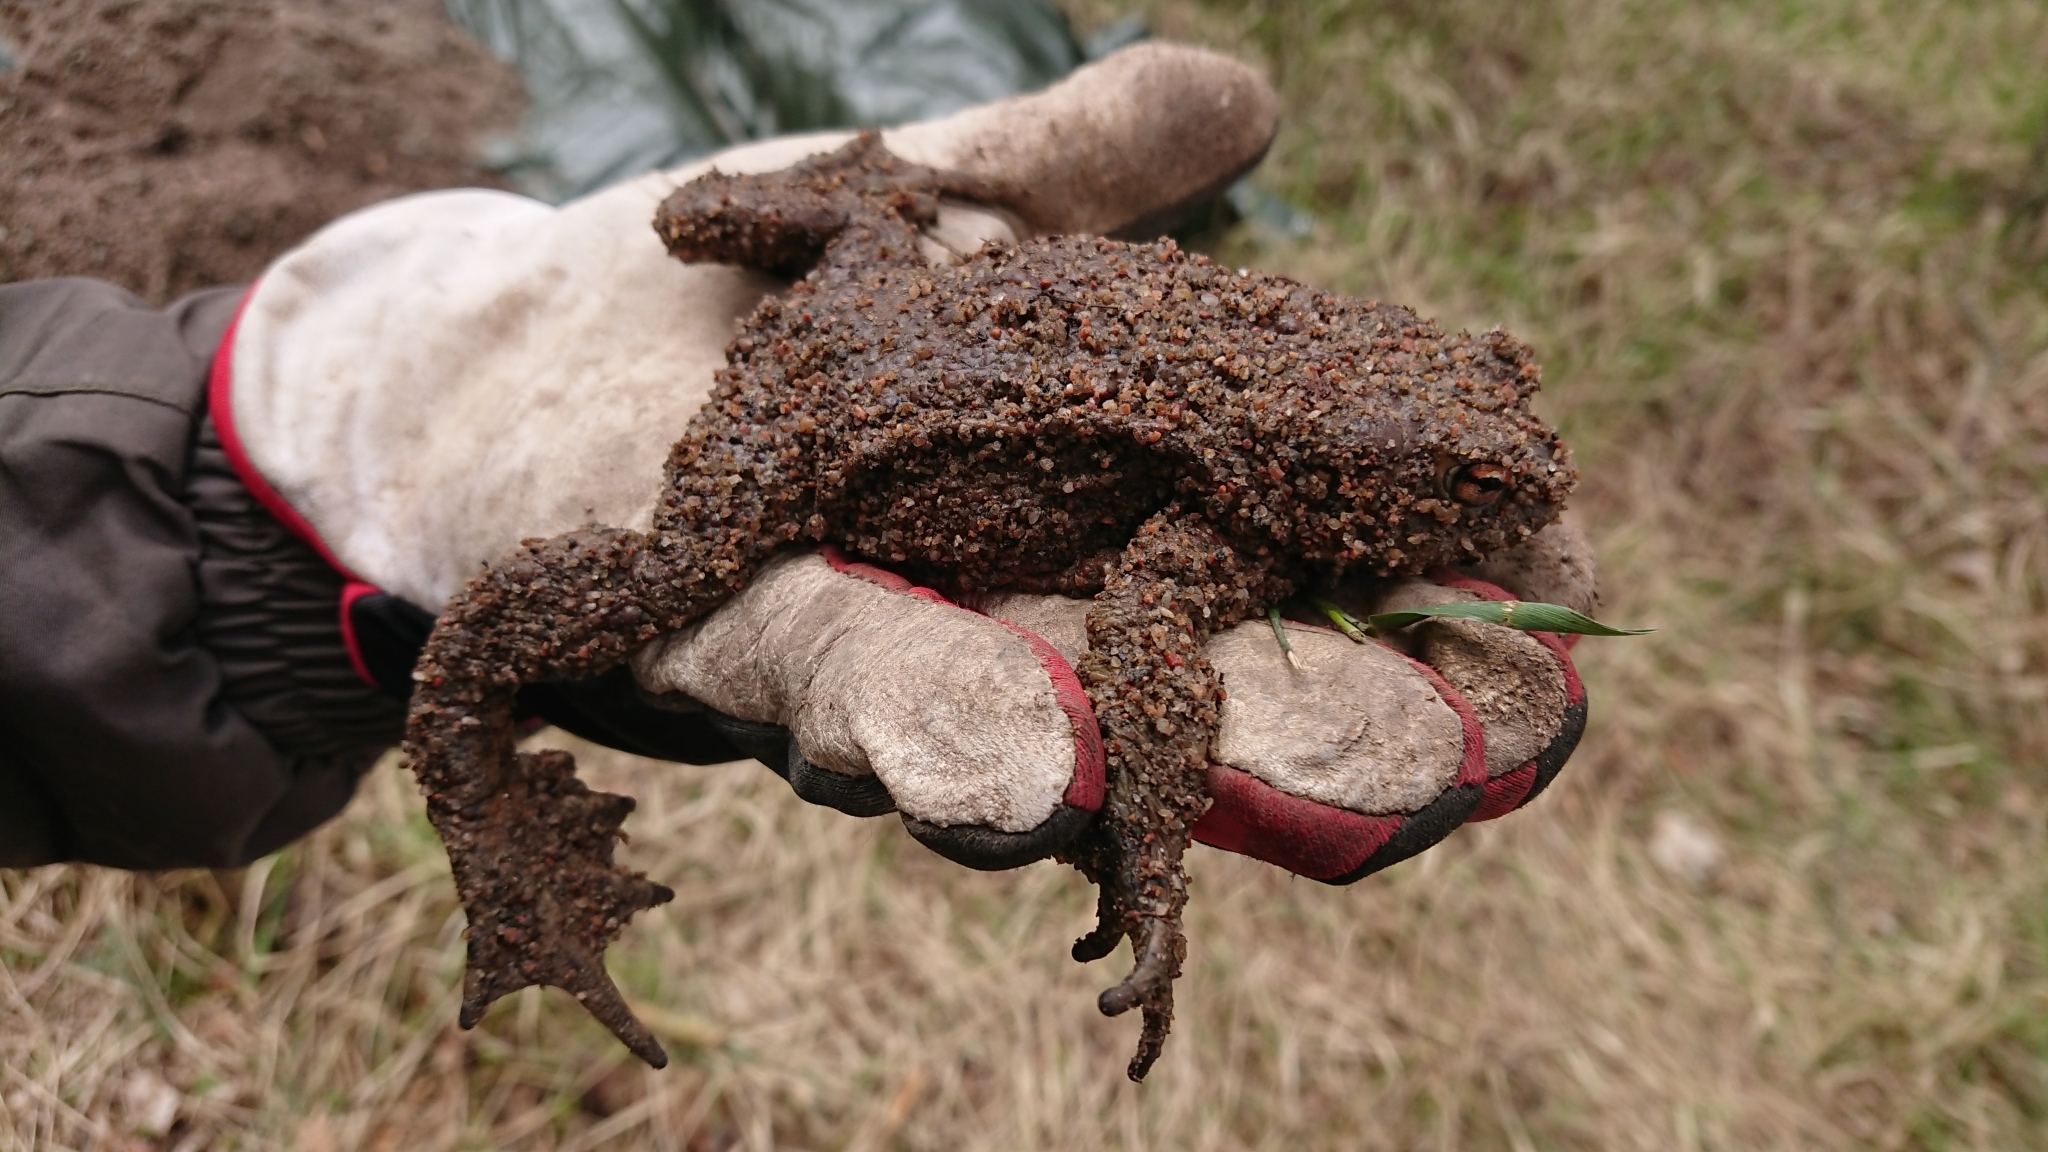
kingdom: Animalia
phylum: Chordata
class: Amphibia
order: Anura
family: Bufonidae
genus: Bufo
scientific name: Bufo bufo
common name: Common toad
